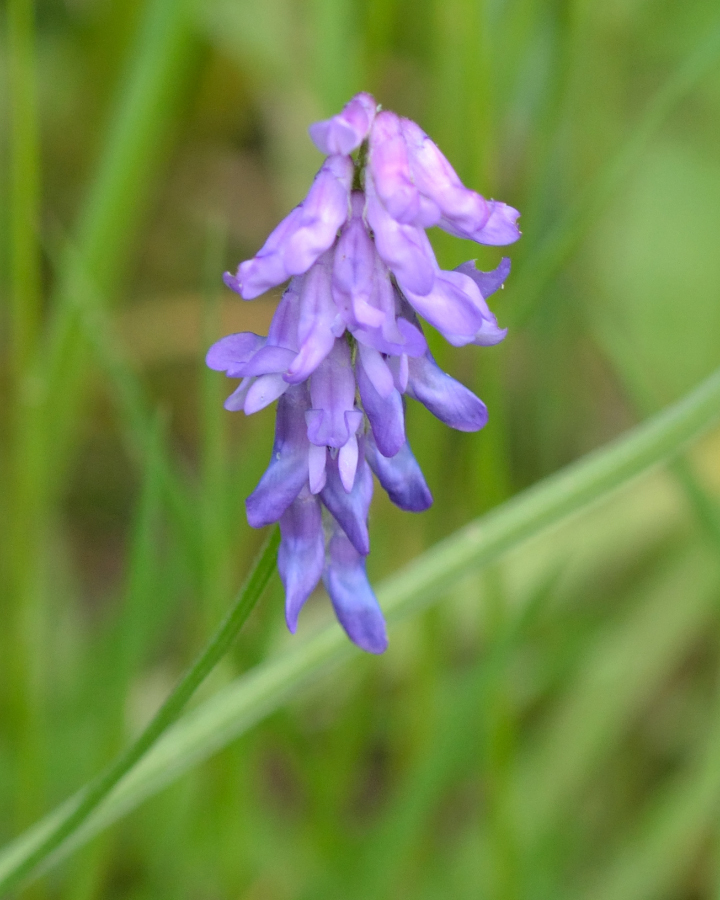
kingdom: Plantae
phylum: Tracheophyta
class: Magnoliopsida
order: Fabales
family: Fabaceae
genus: Vicia
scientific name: Vicia cracca
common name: Bird vetch
